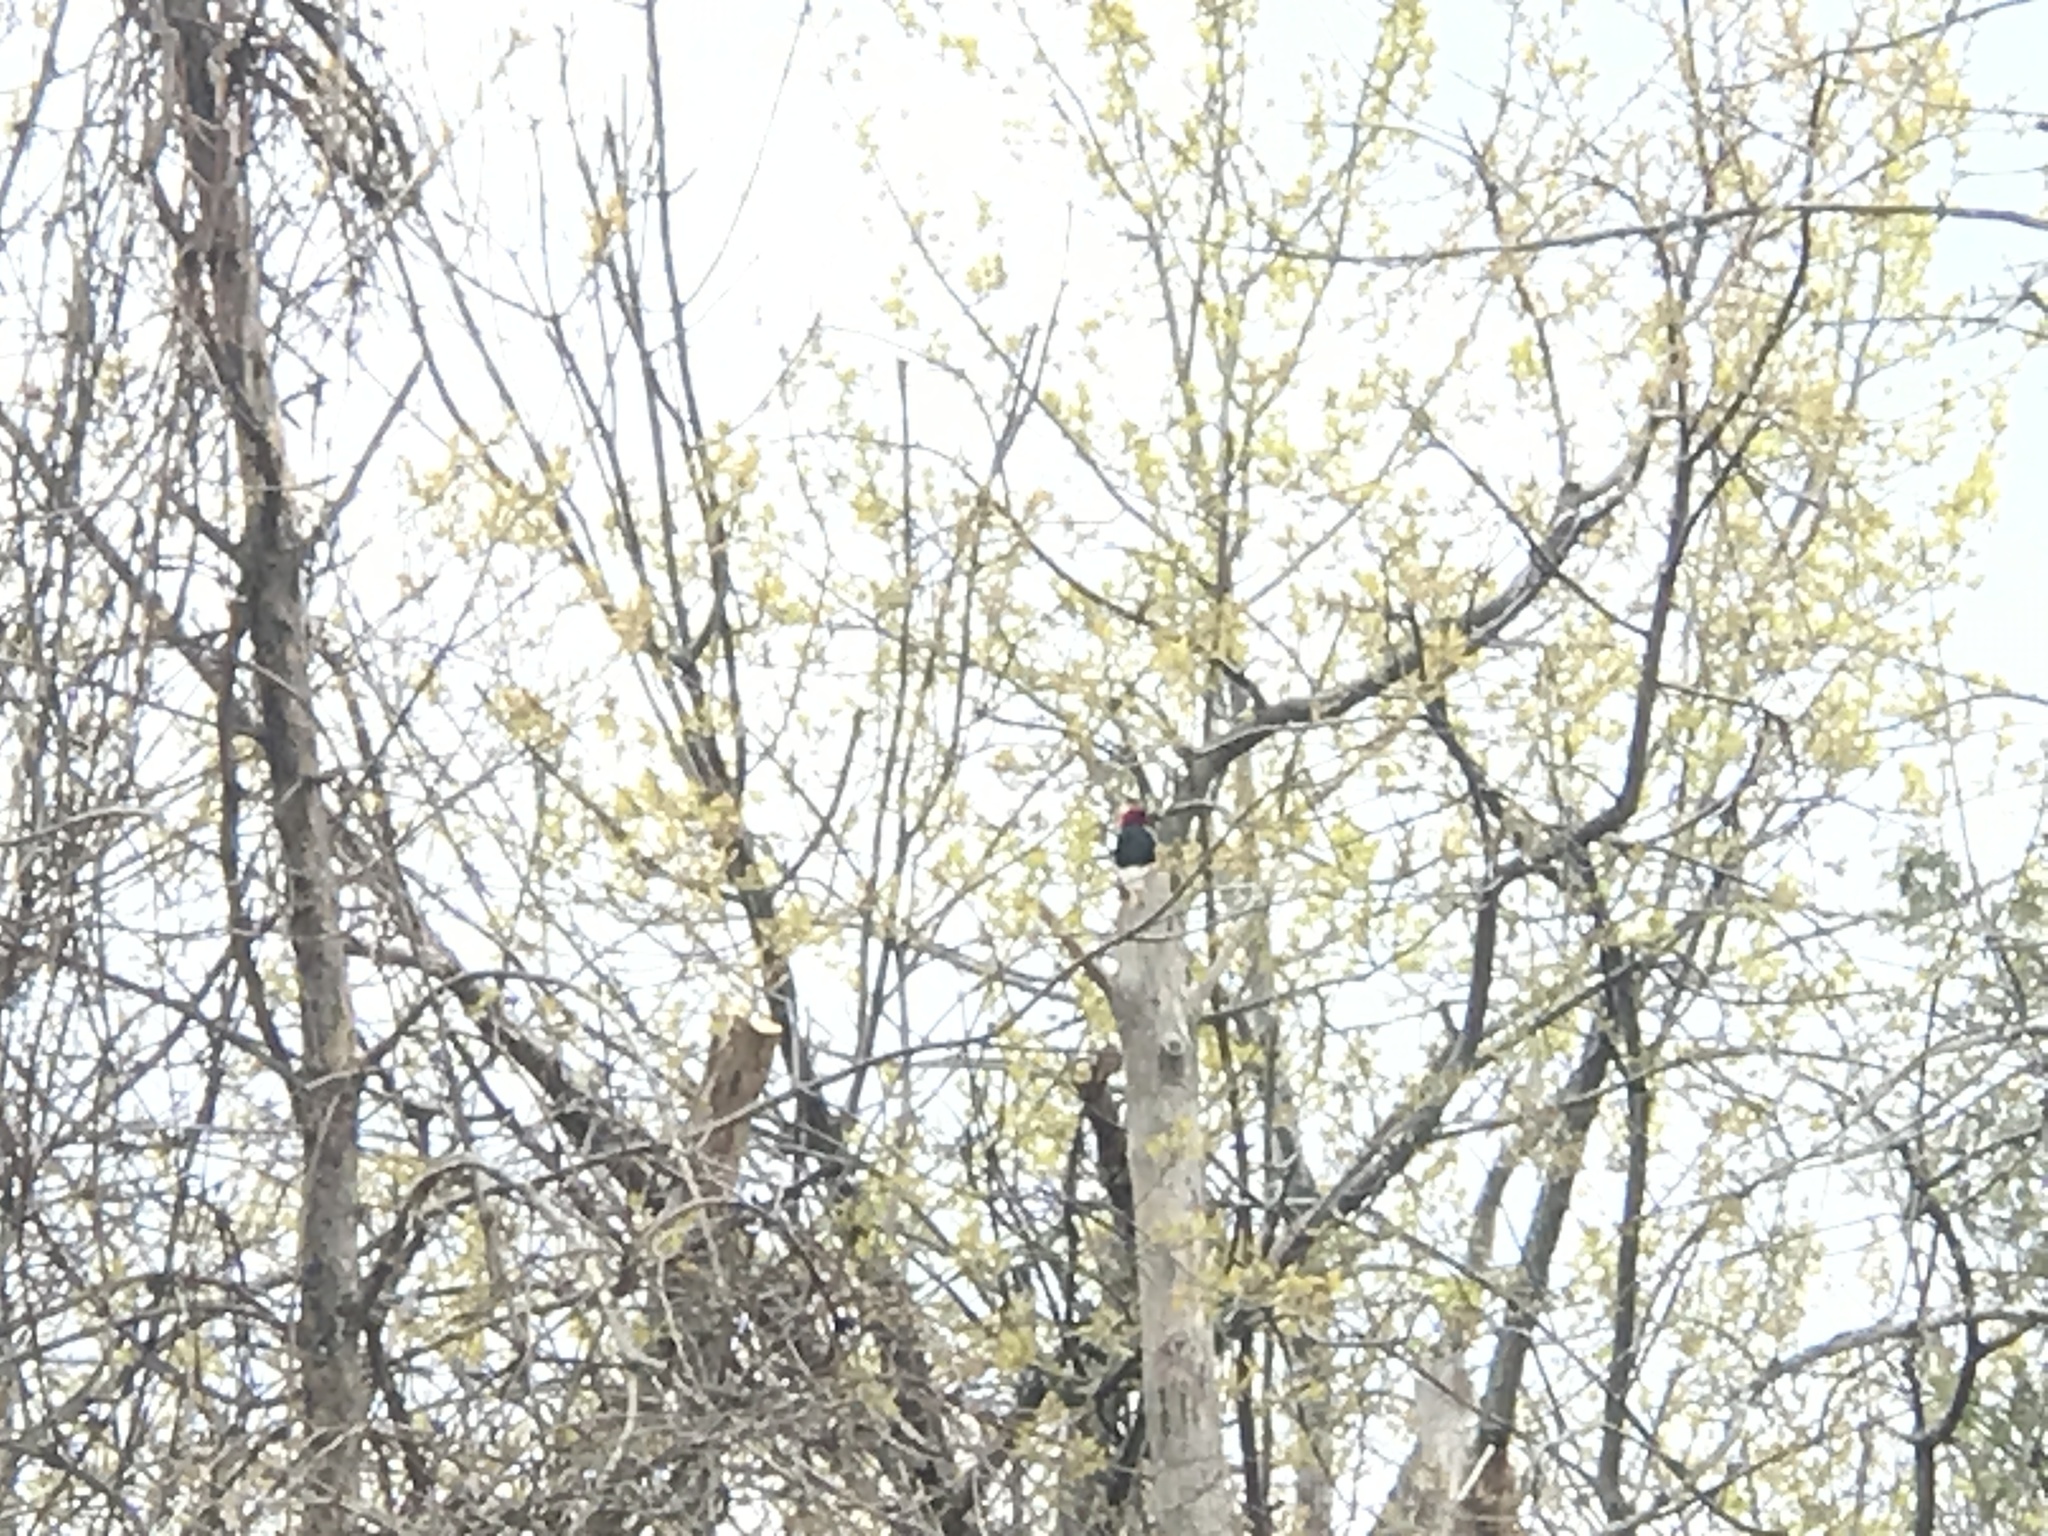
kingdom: Animalia
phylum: Chordata
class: Aves
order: Piciformes
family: Picidae
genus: Melanerpes
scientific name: Melanerpes erythrocephalus
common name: Red-headed woodpecker
